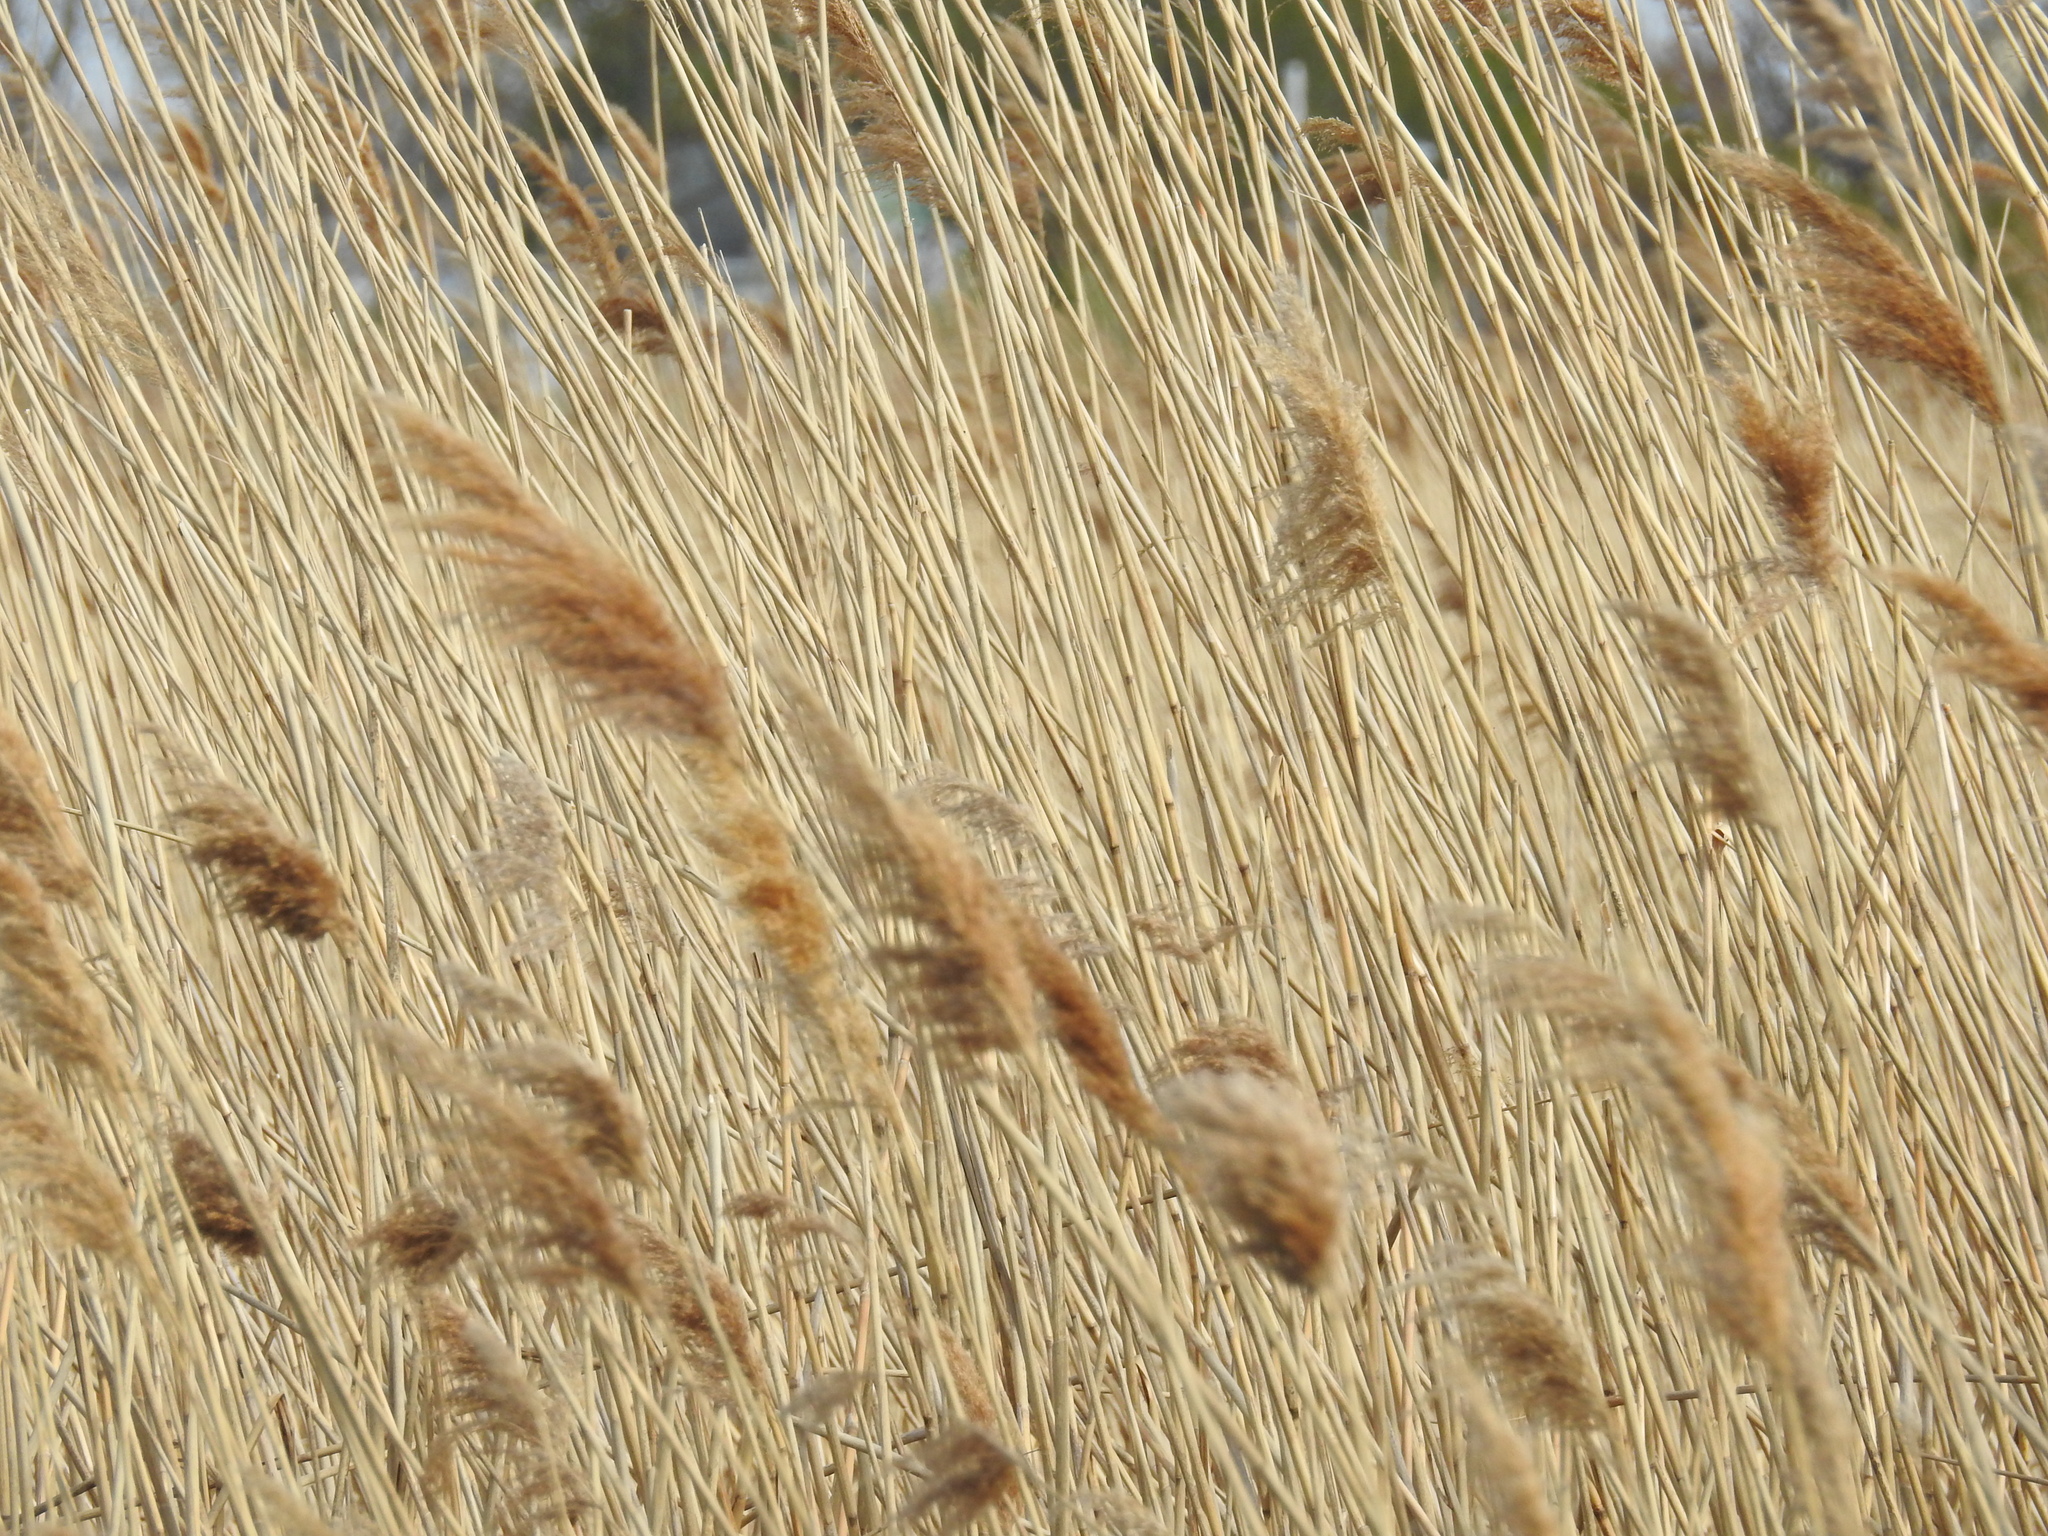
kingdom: Plantae
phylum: Tracheophyta
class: Liliopsida
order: Poales
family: Poaceae
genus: Phragmites
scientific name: Phragmites australis
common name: Common reed
